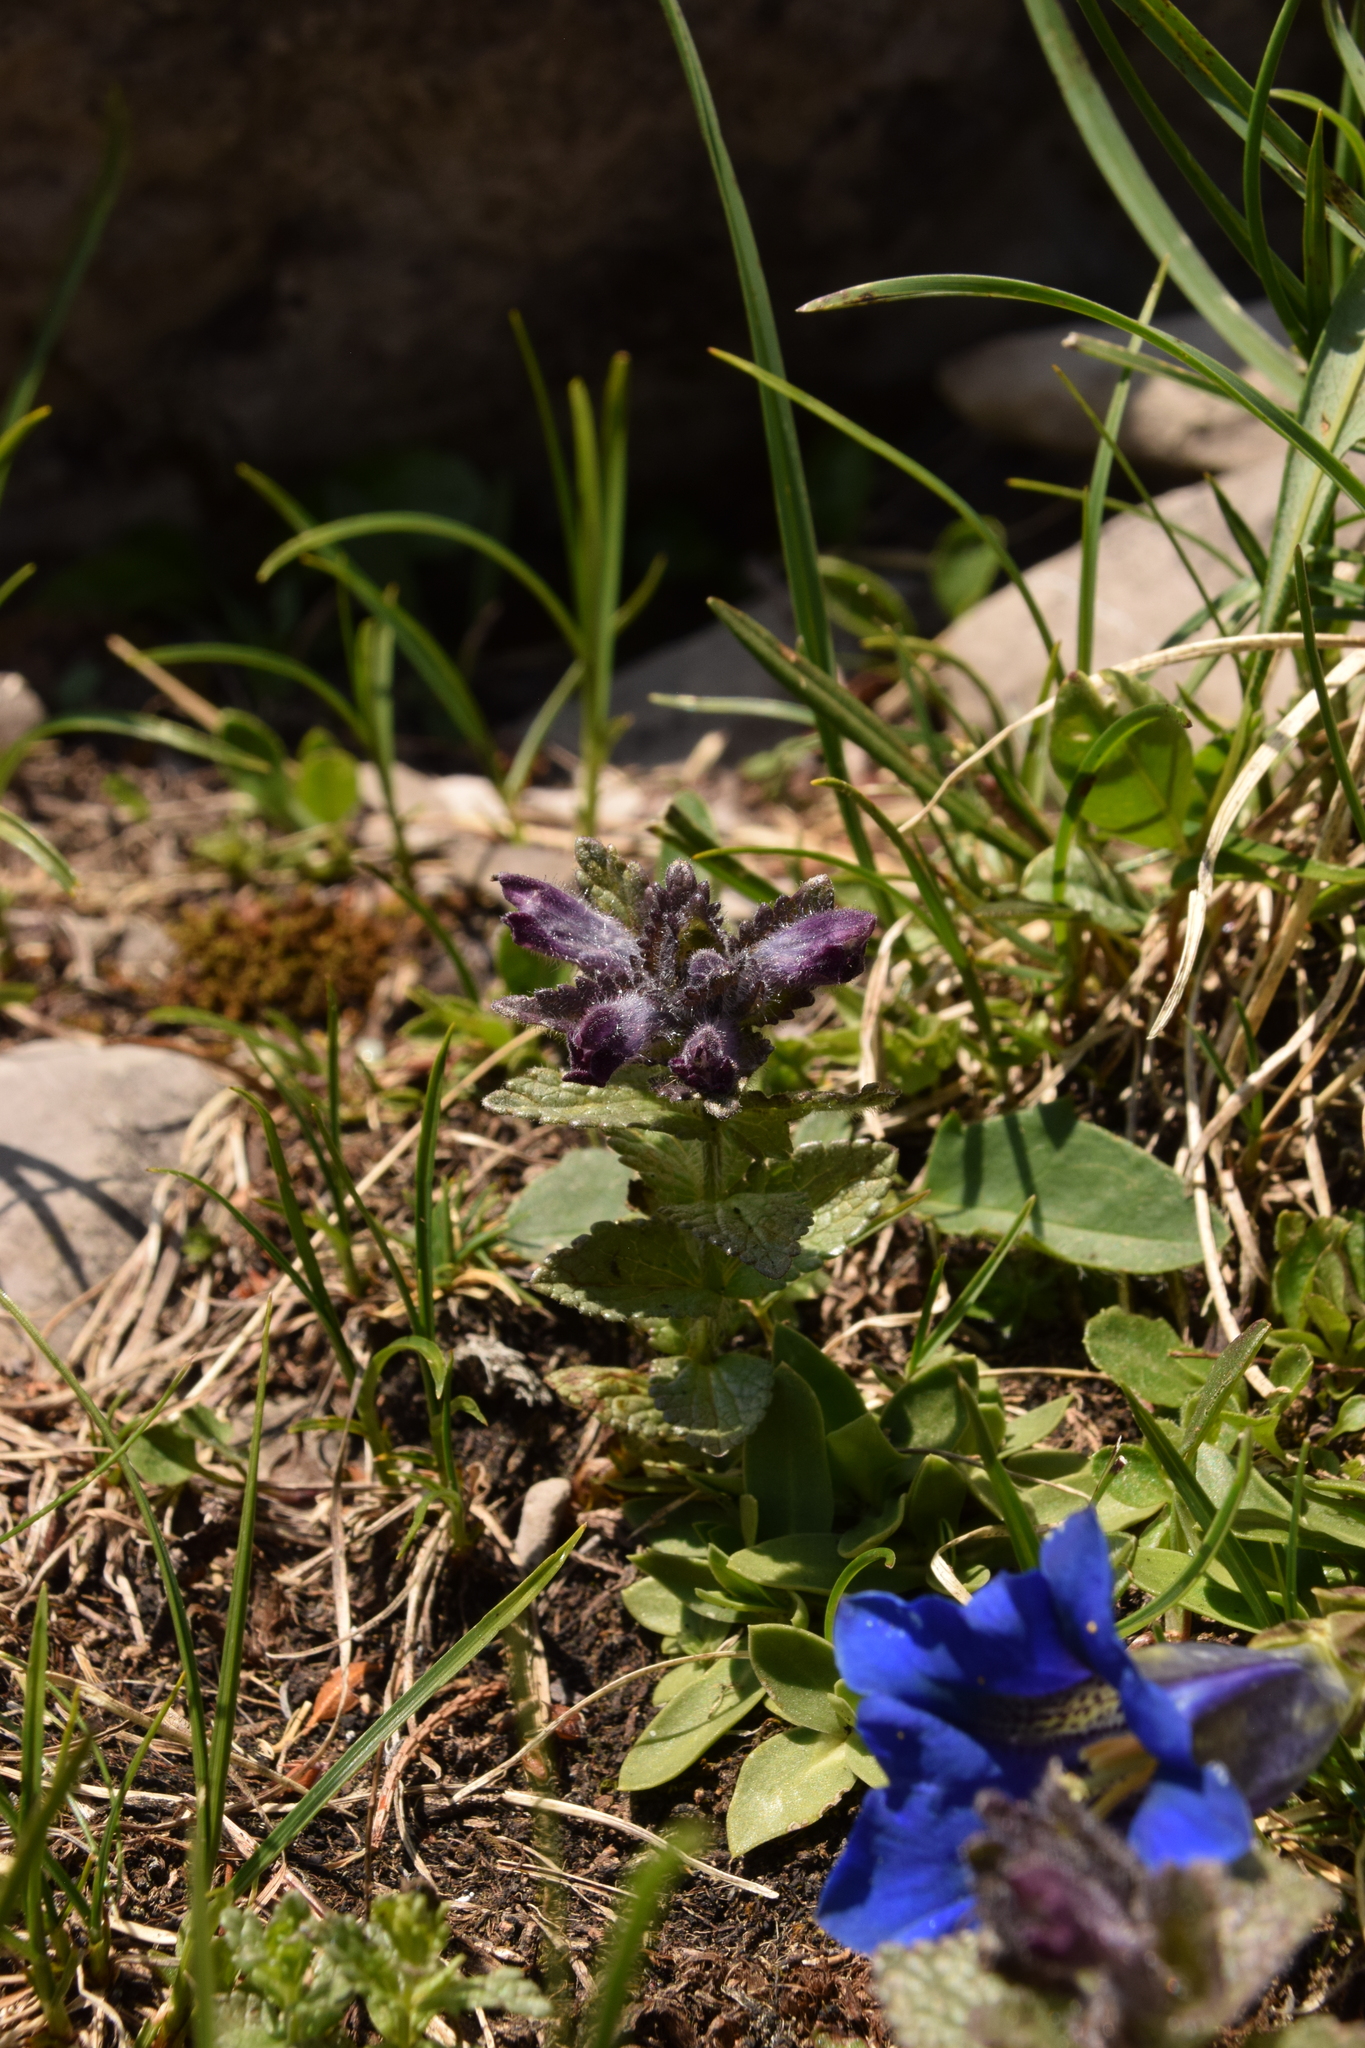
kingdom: Plantae
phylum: Tracheophyta
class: Magnoliopsida
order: Lamiales
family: Orobanchaceae
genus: Bartsia
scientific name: Bartsia alpina
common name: Alpine bartsia
